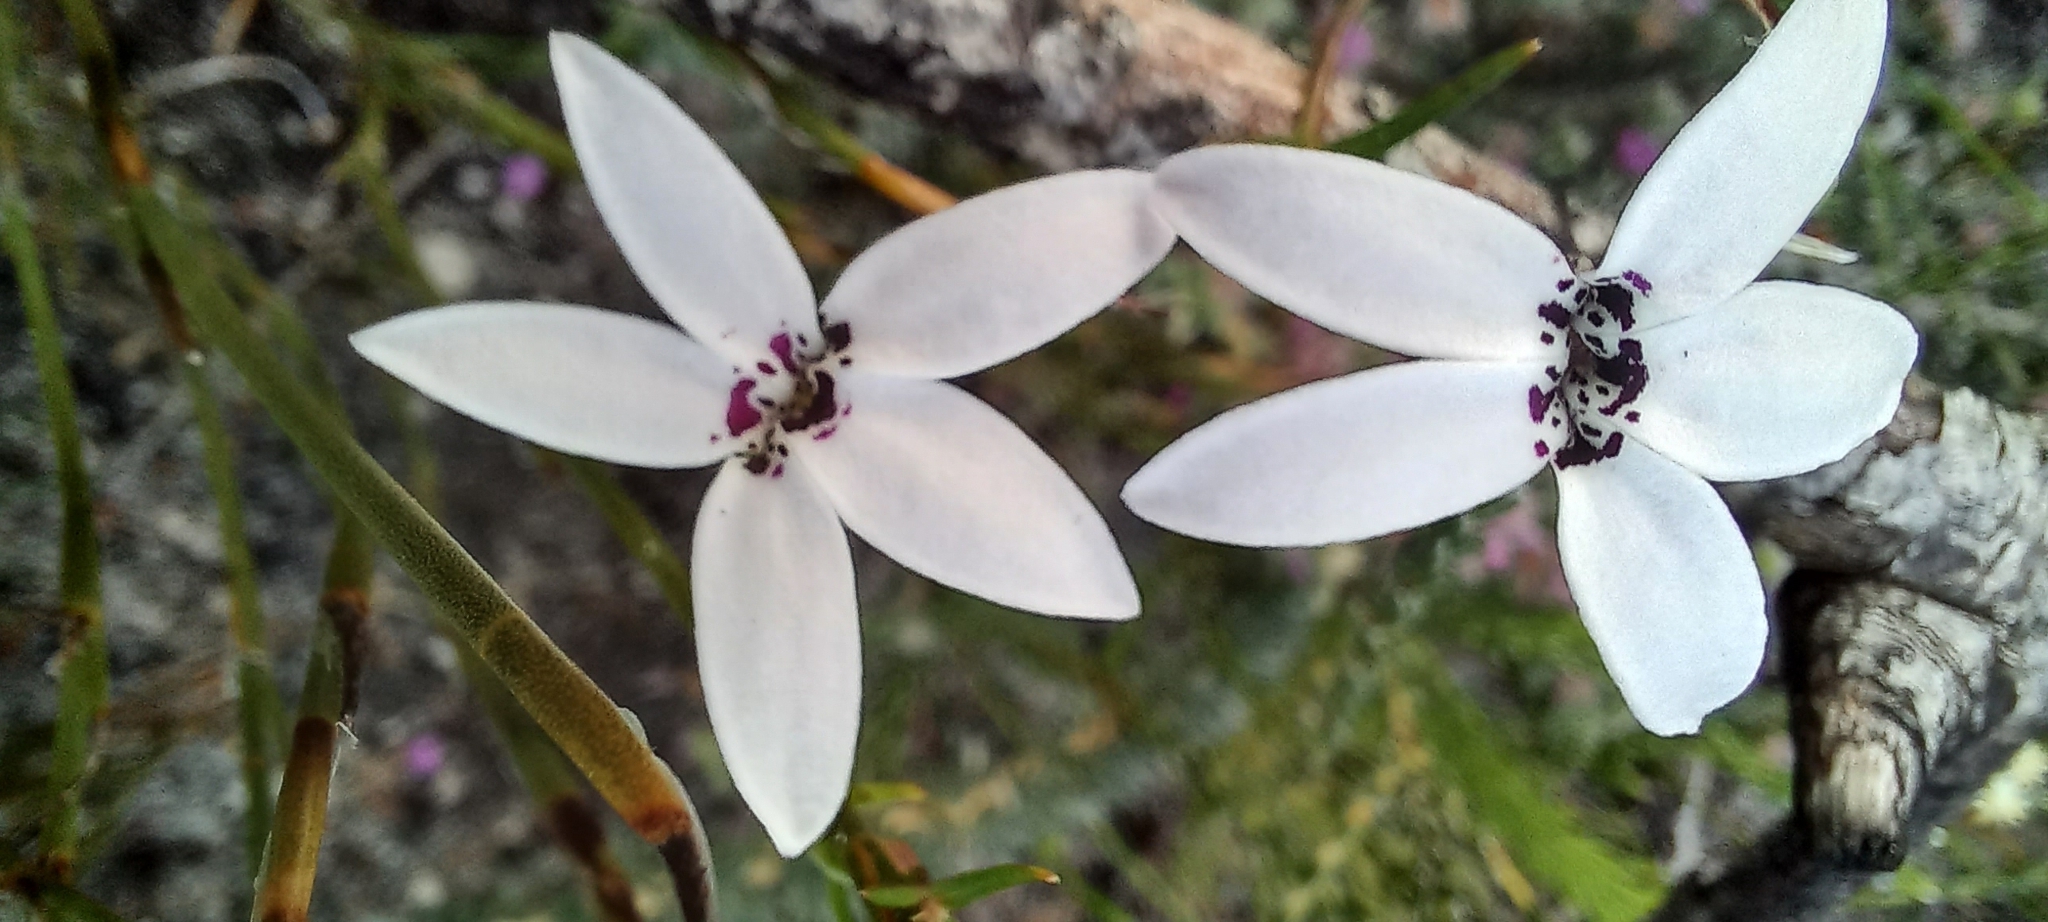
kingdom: Plantae
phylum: Tracheophyta
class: Magnoliopsida
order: Asterales
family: Campanulaceae
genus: Cyphia
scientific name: Cyphia volubilis
